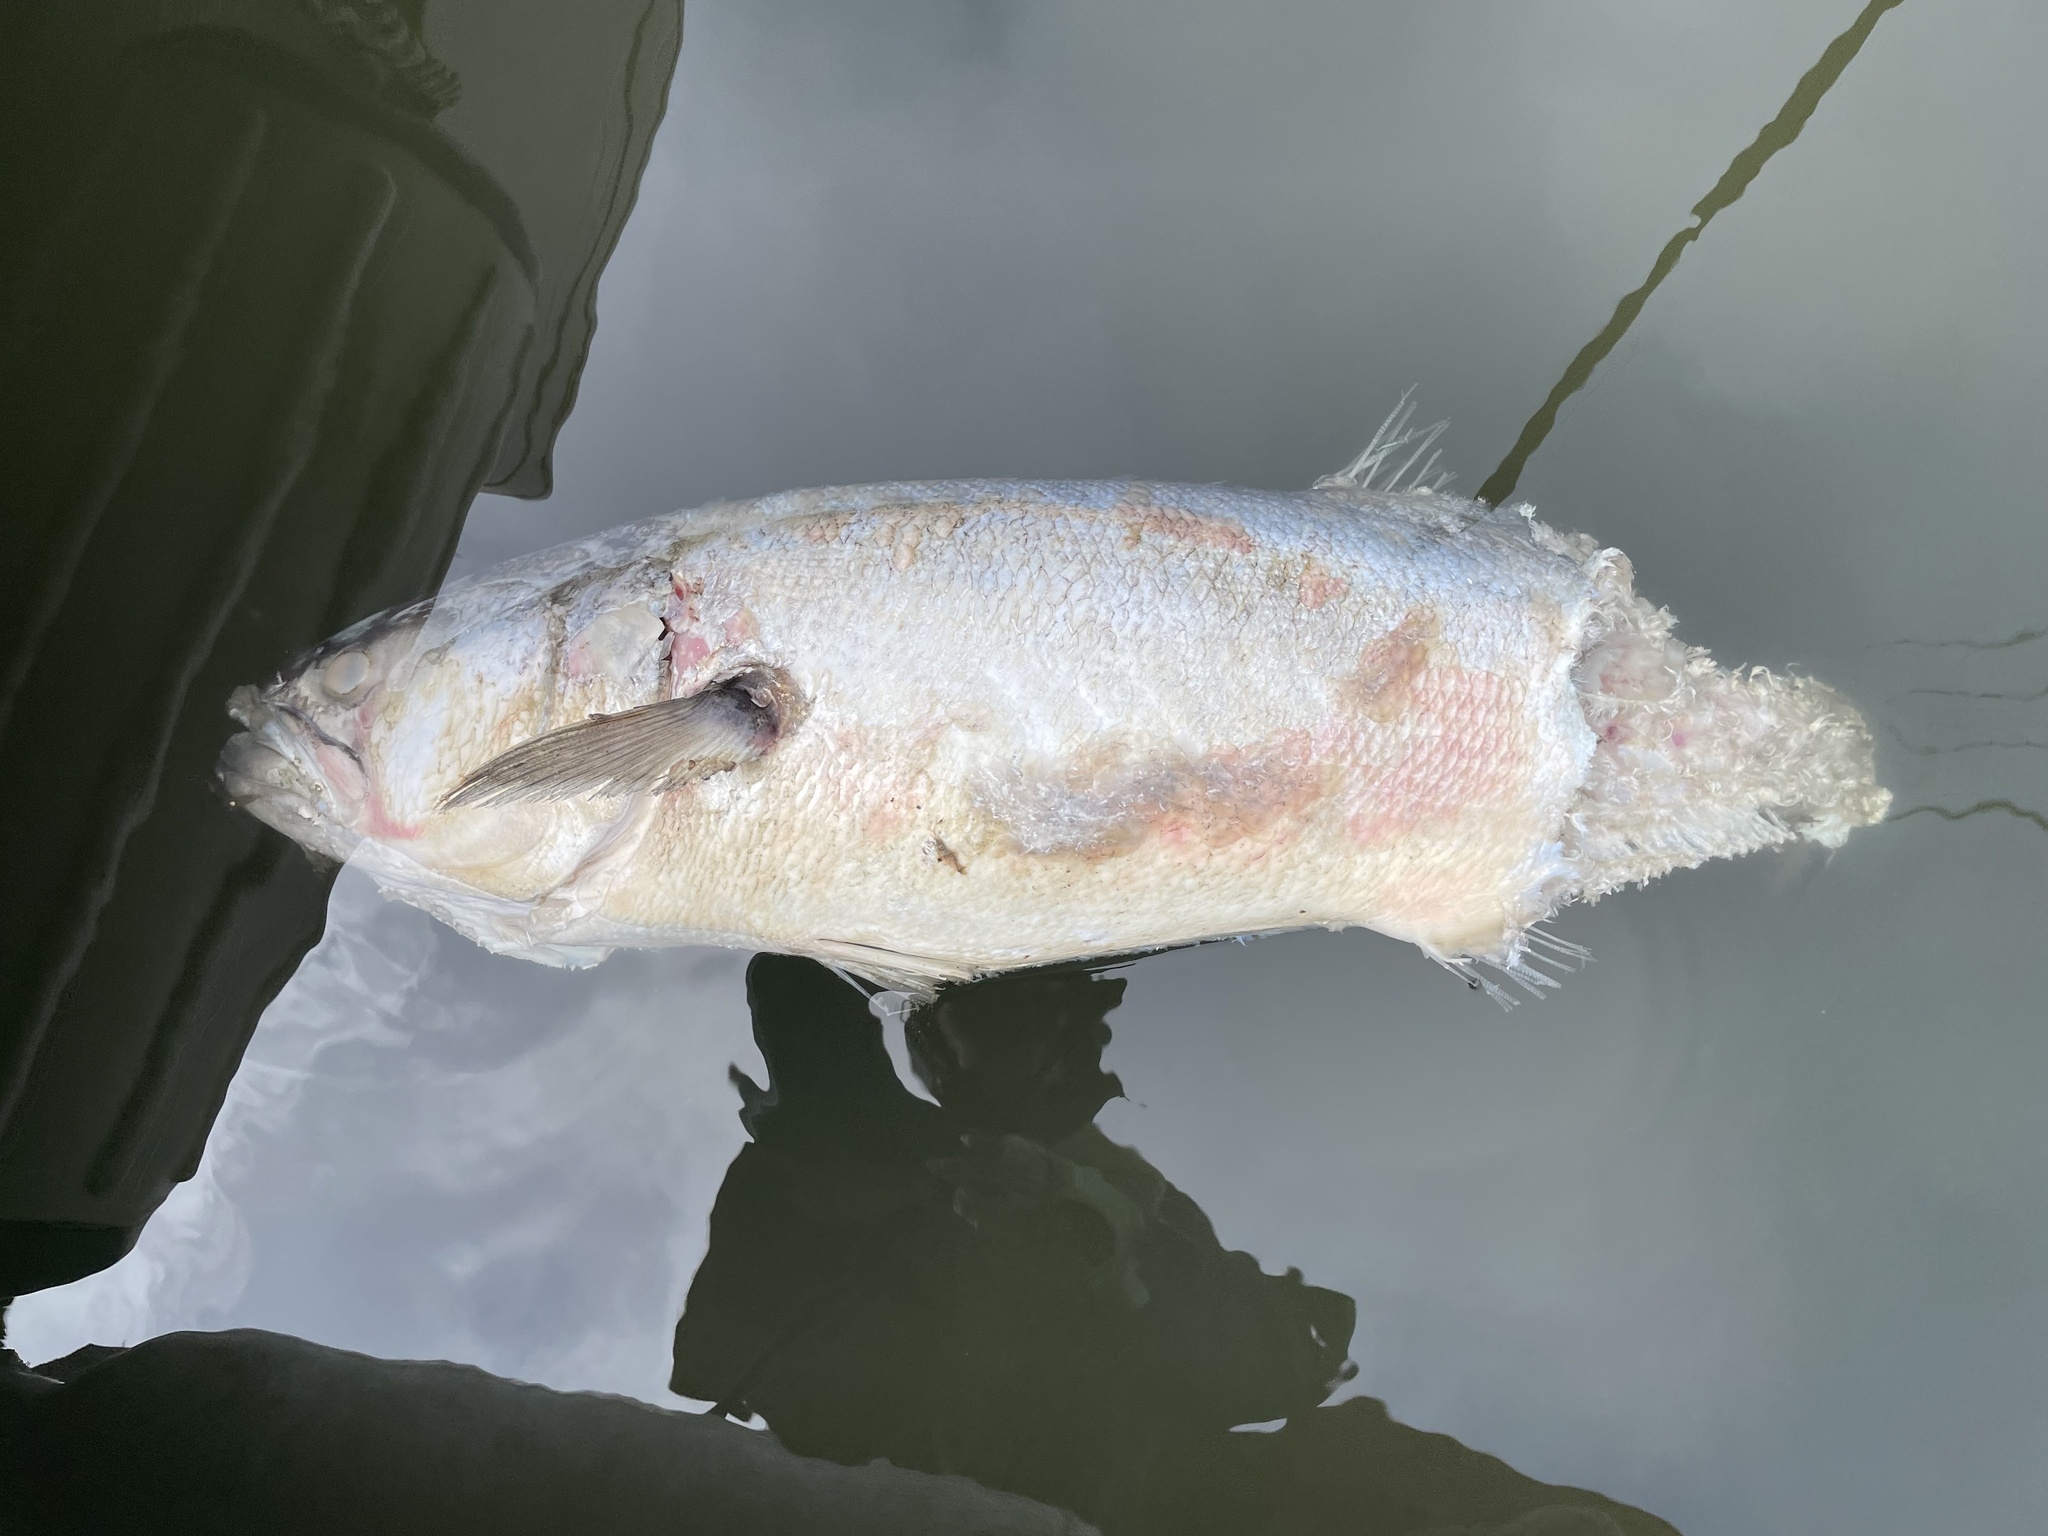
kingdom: Animalia
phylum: Chordata
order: Perciformes
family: Pomatomidae
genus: Pomatomus
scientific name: Pomatomus saltatrix
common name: Bluefish
